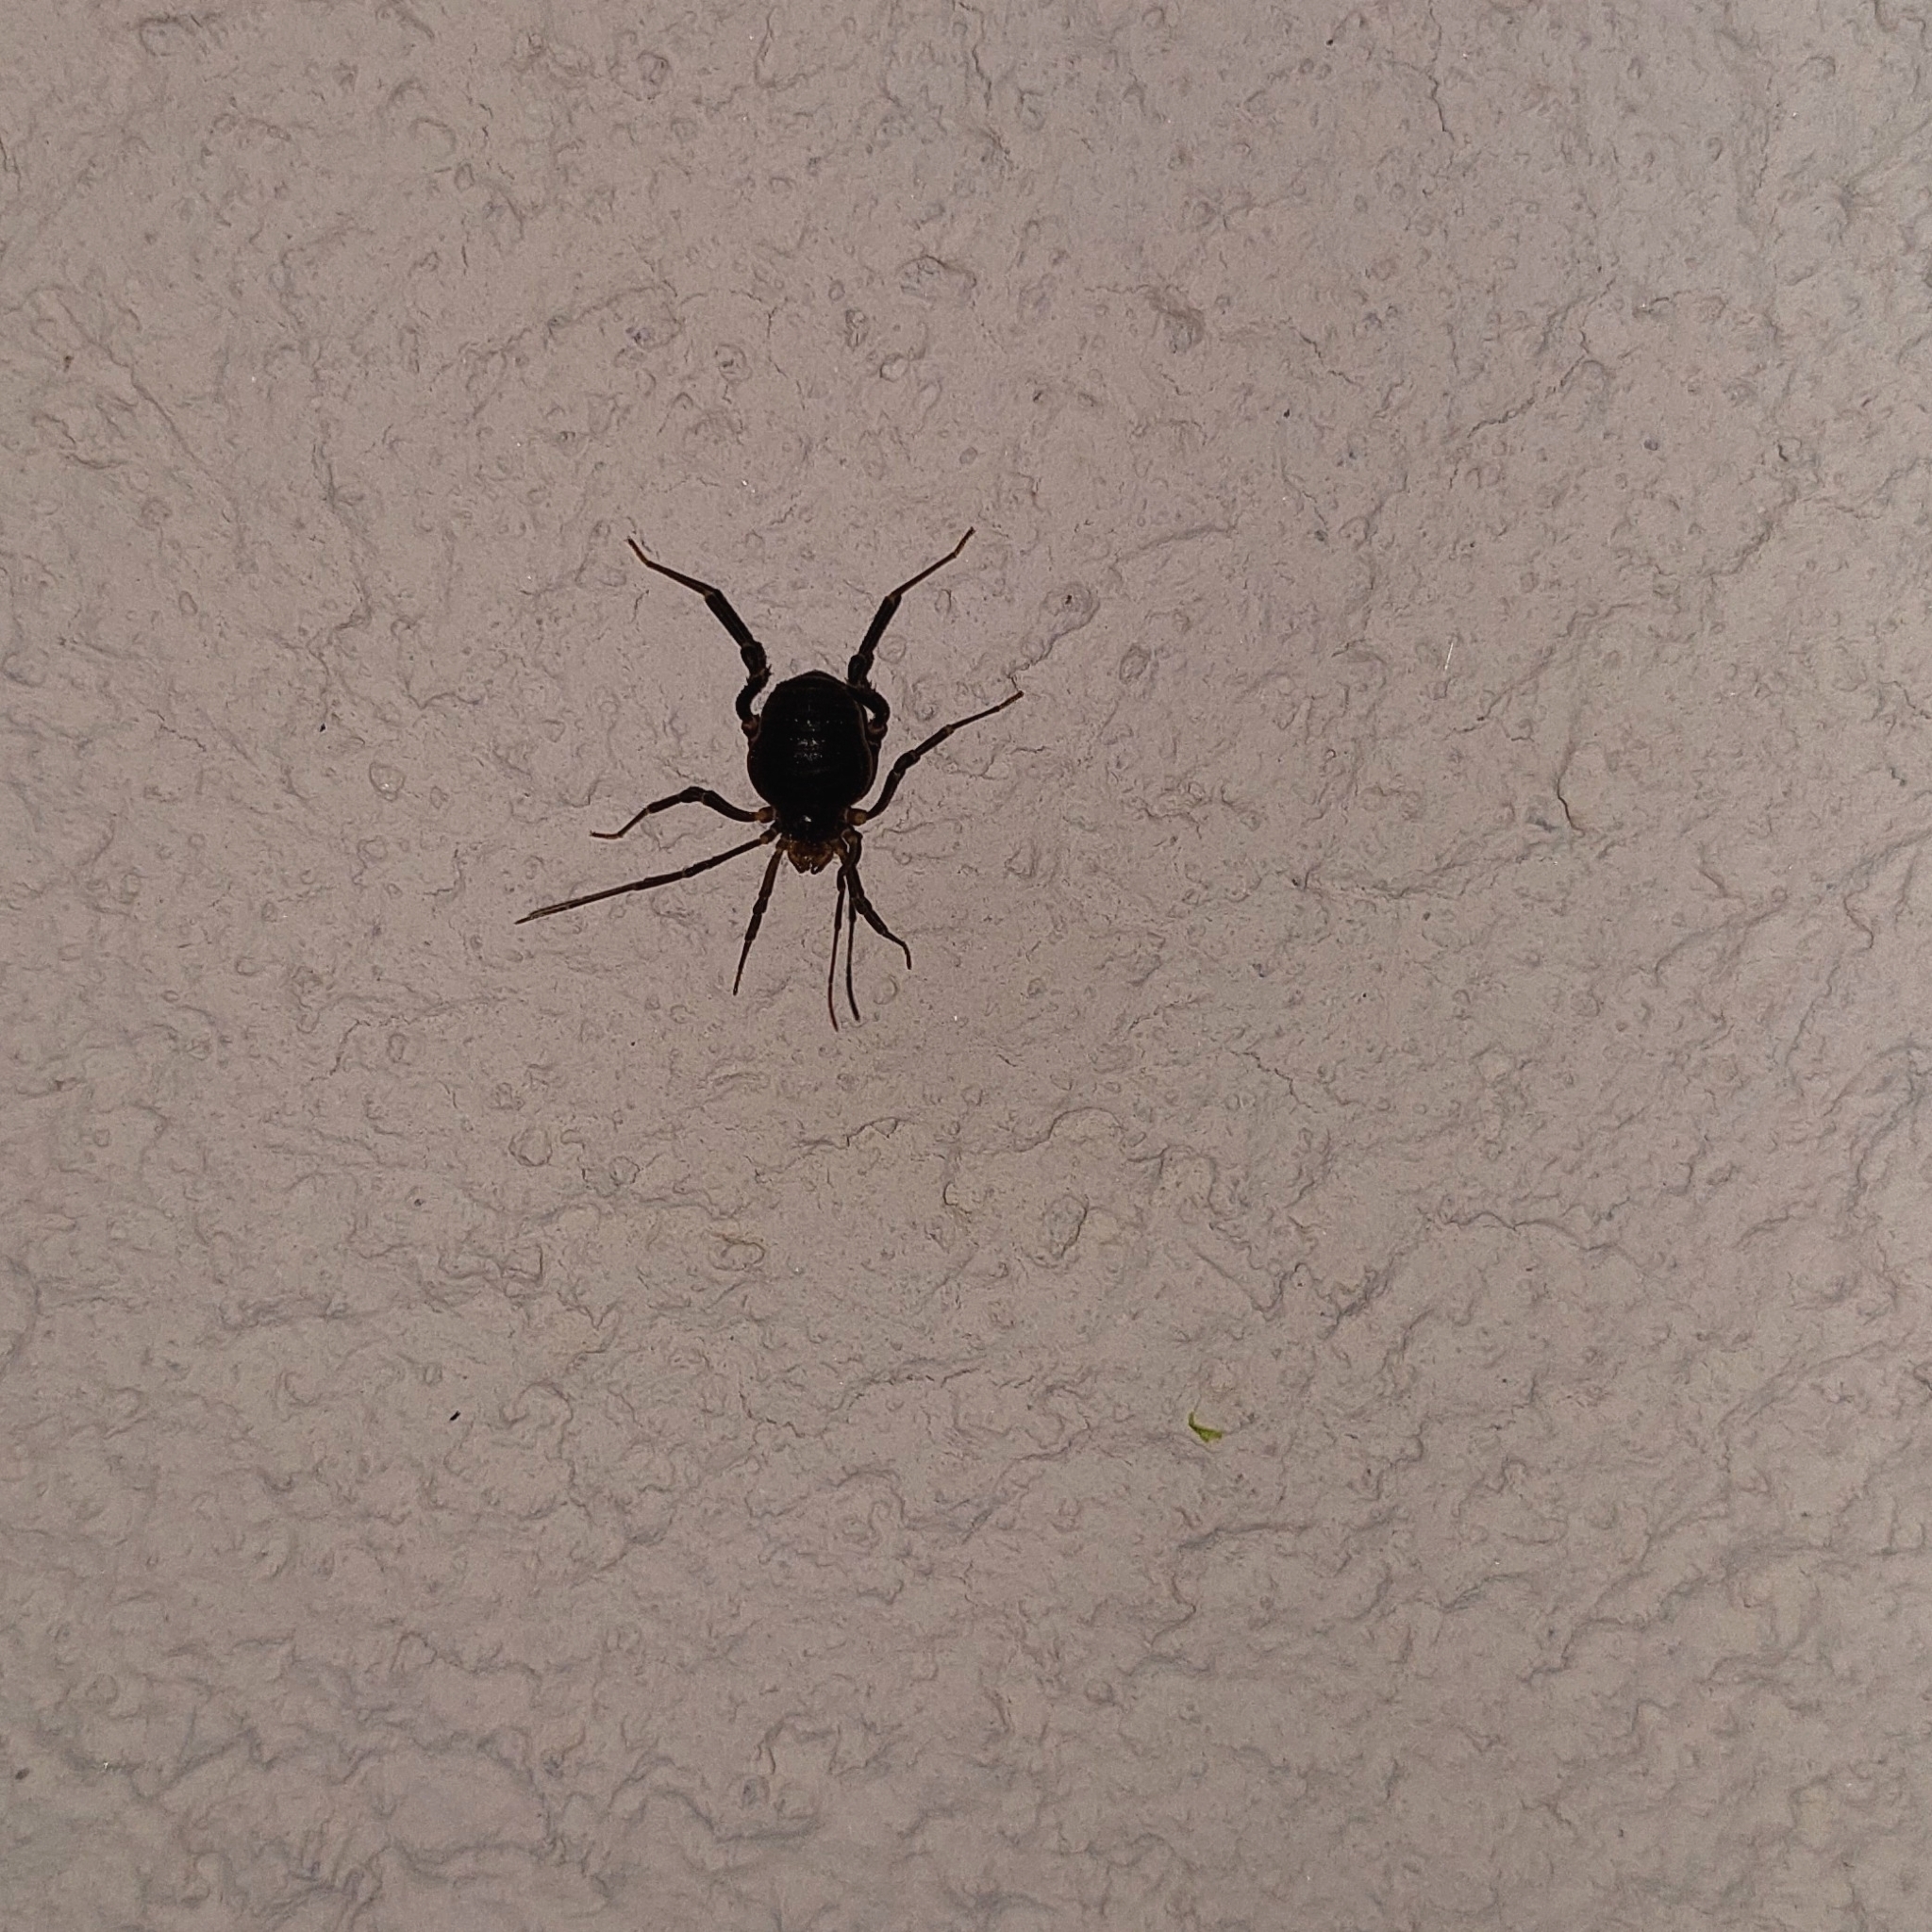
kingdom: Animalia
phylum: Arthropoda
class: Arachnida
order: Opiliones
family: Gonyleptidae
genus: Acanthopachylus
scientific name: Acanthopachylus robustus
